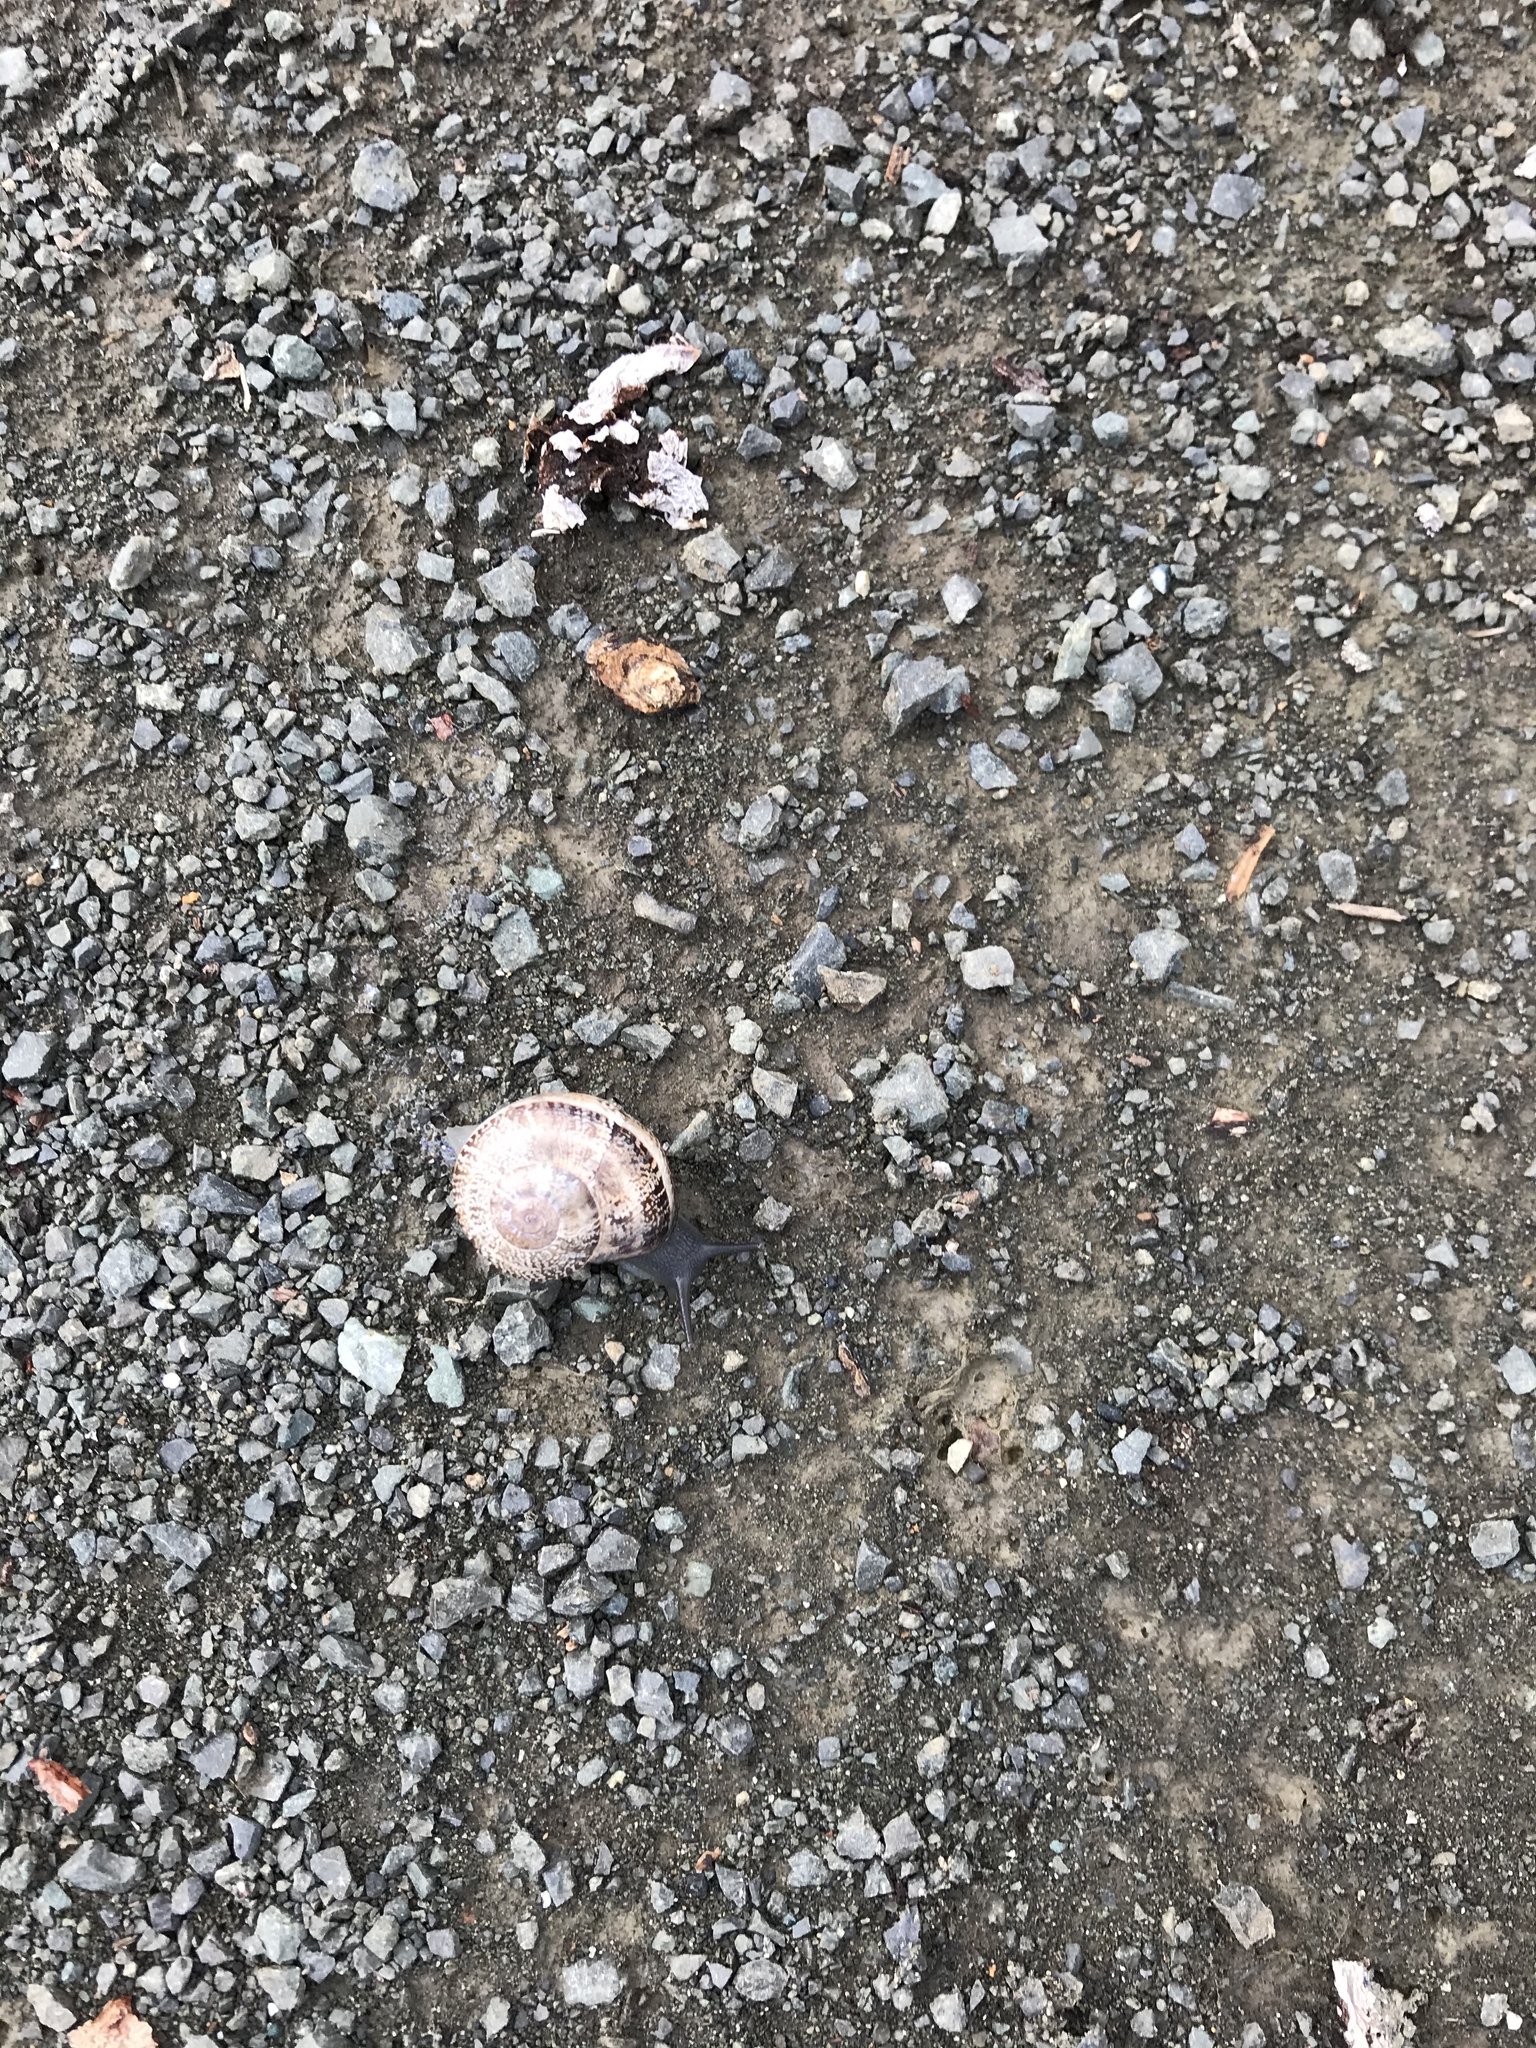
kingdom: Animalia
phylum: Mollusca
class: Gastropoda
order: Stylommatophora
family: Helicidae
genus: Otala
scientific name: Otala lactea
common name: Milk snail
